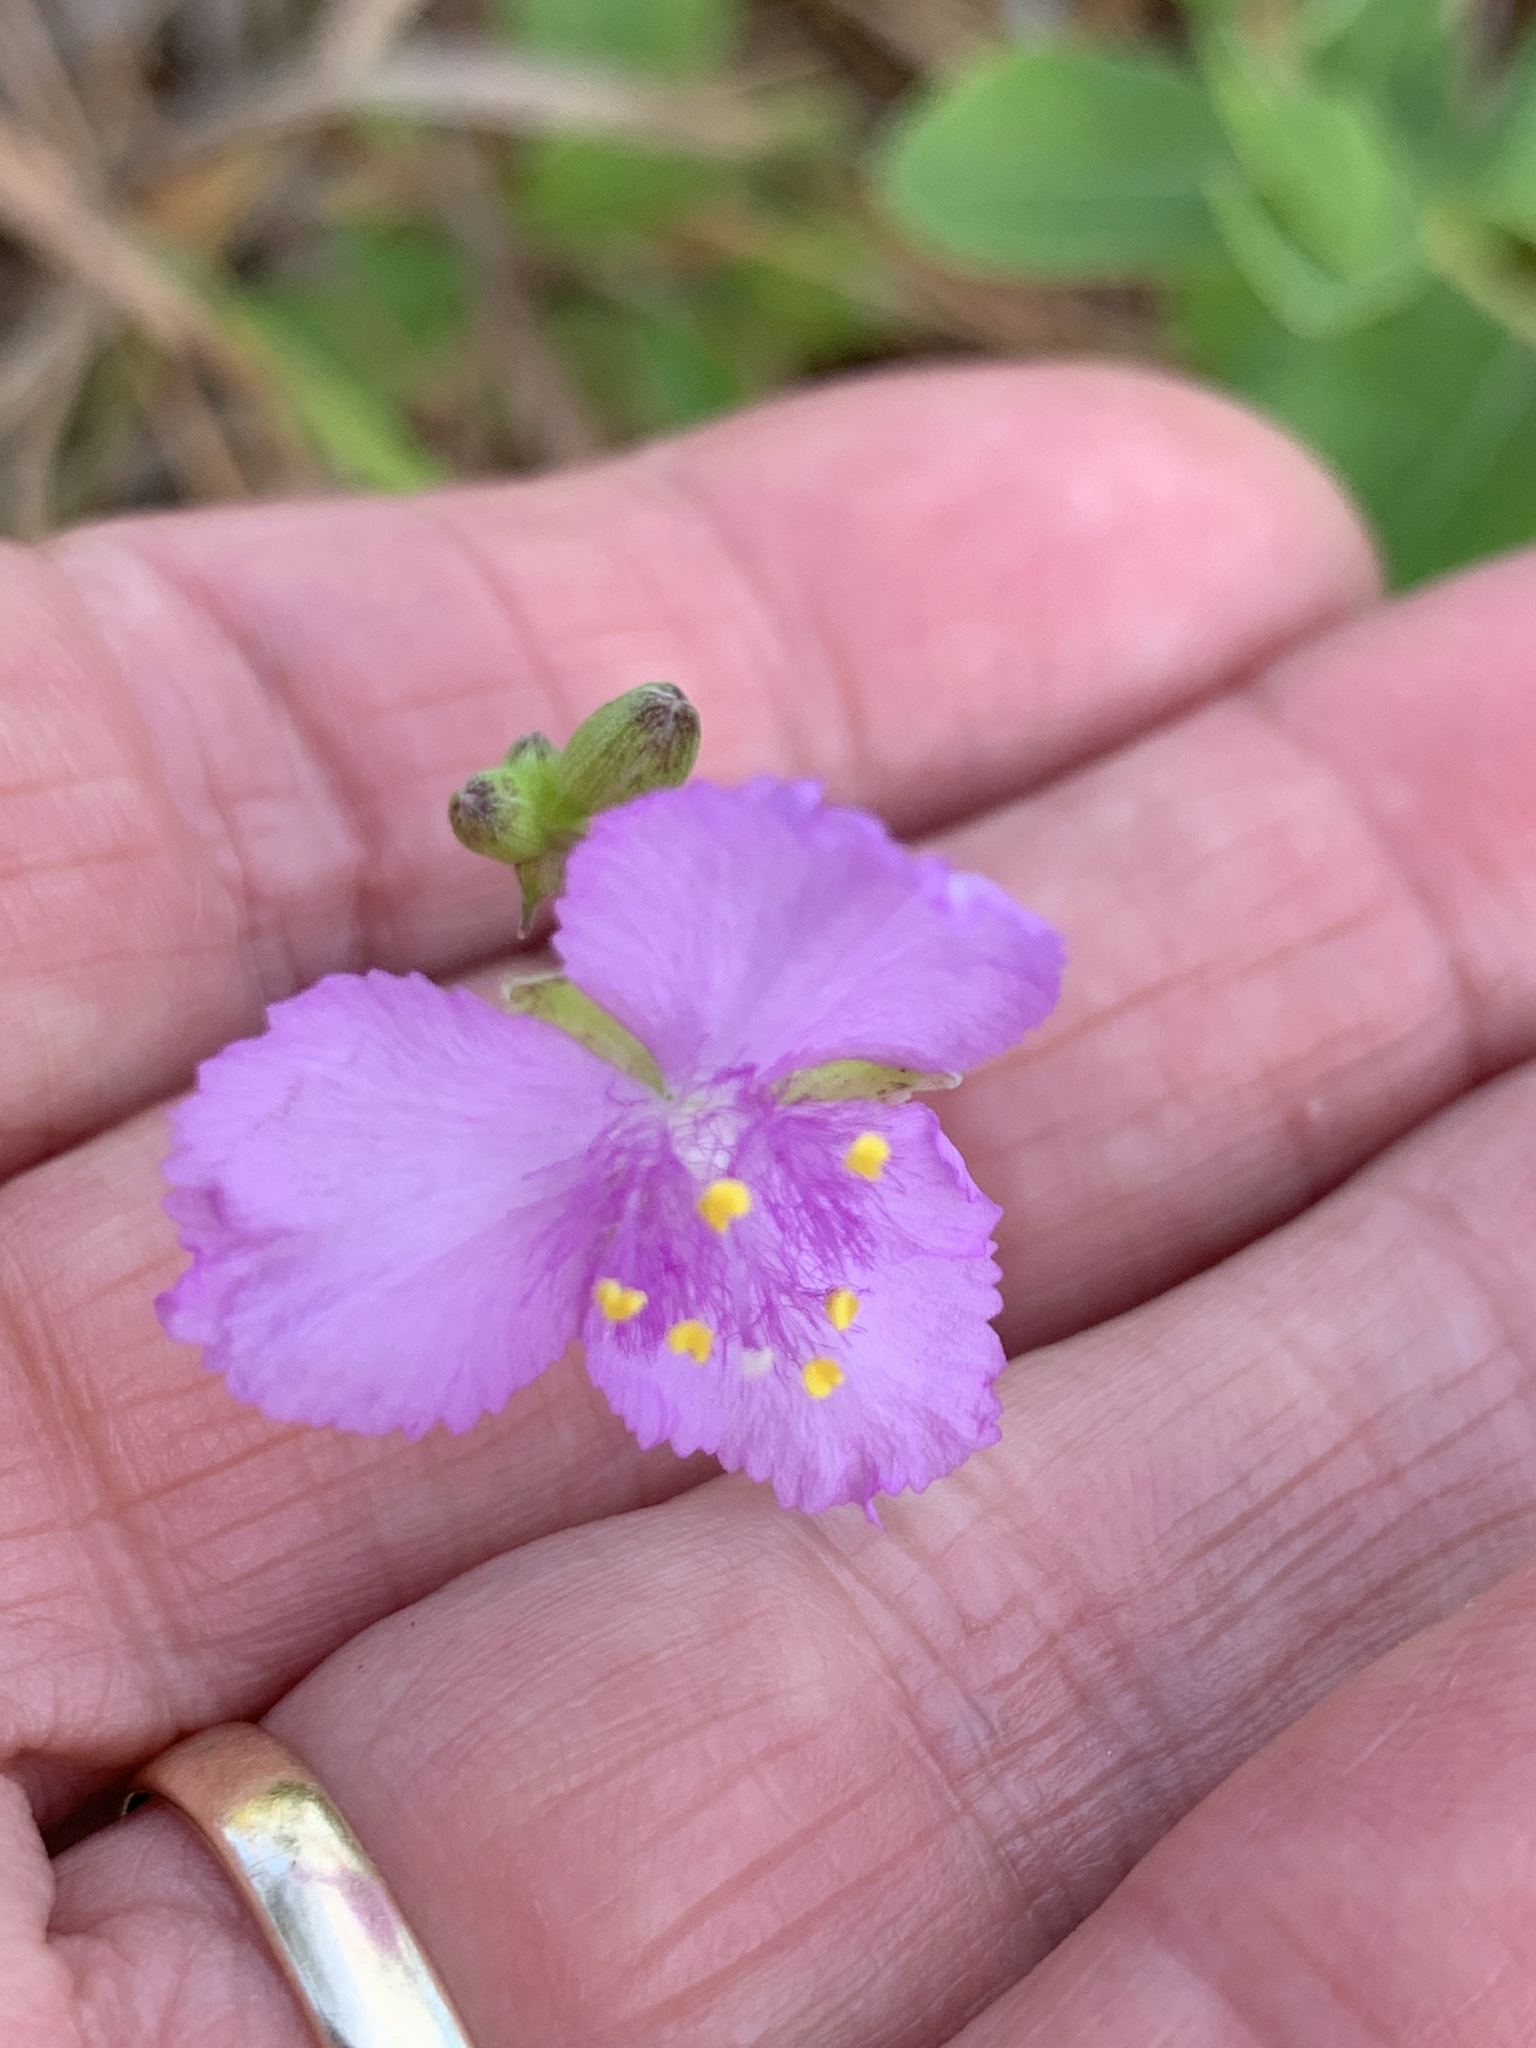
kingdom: Plantae
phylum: Tracheophyta
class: Liliopsida
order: Commelinales
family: Commelinaceae
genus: Callisia
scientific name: Callisia ornata
